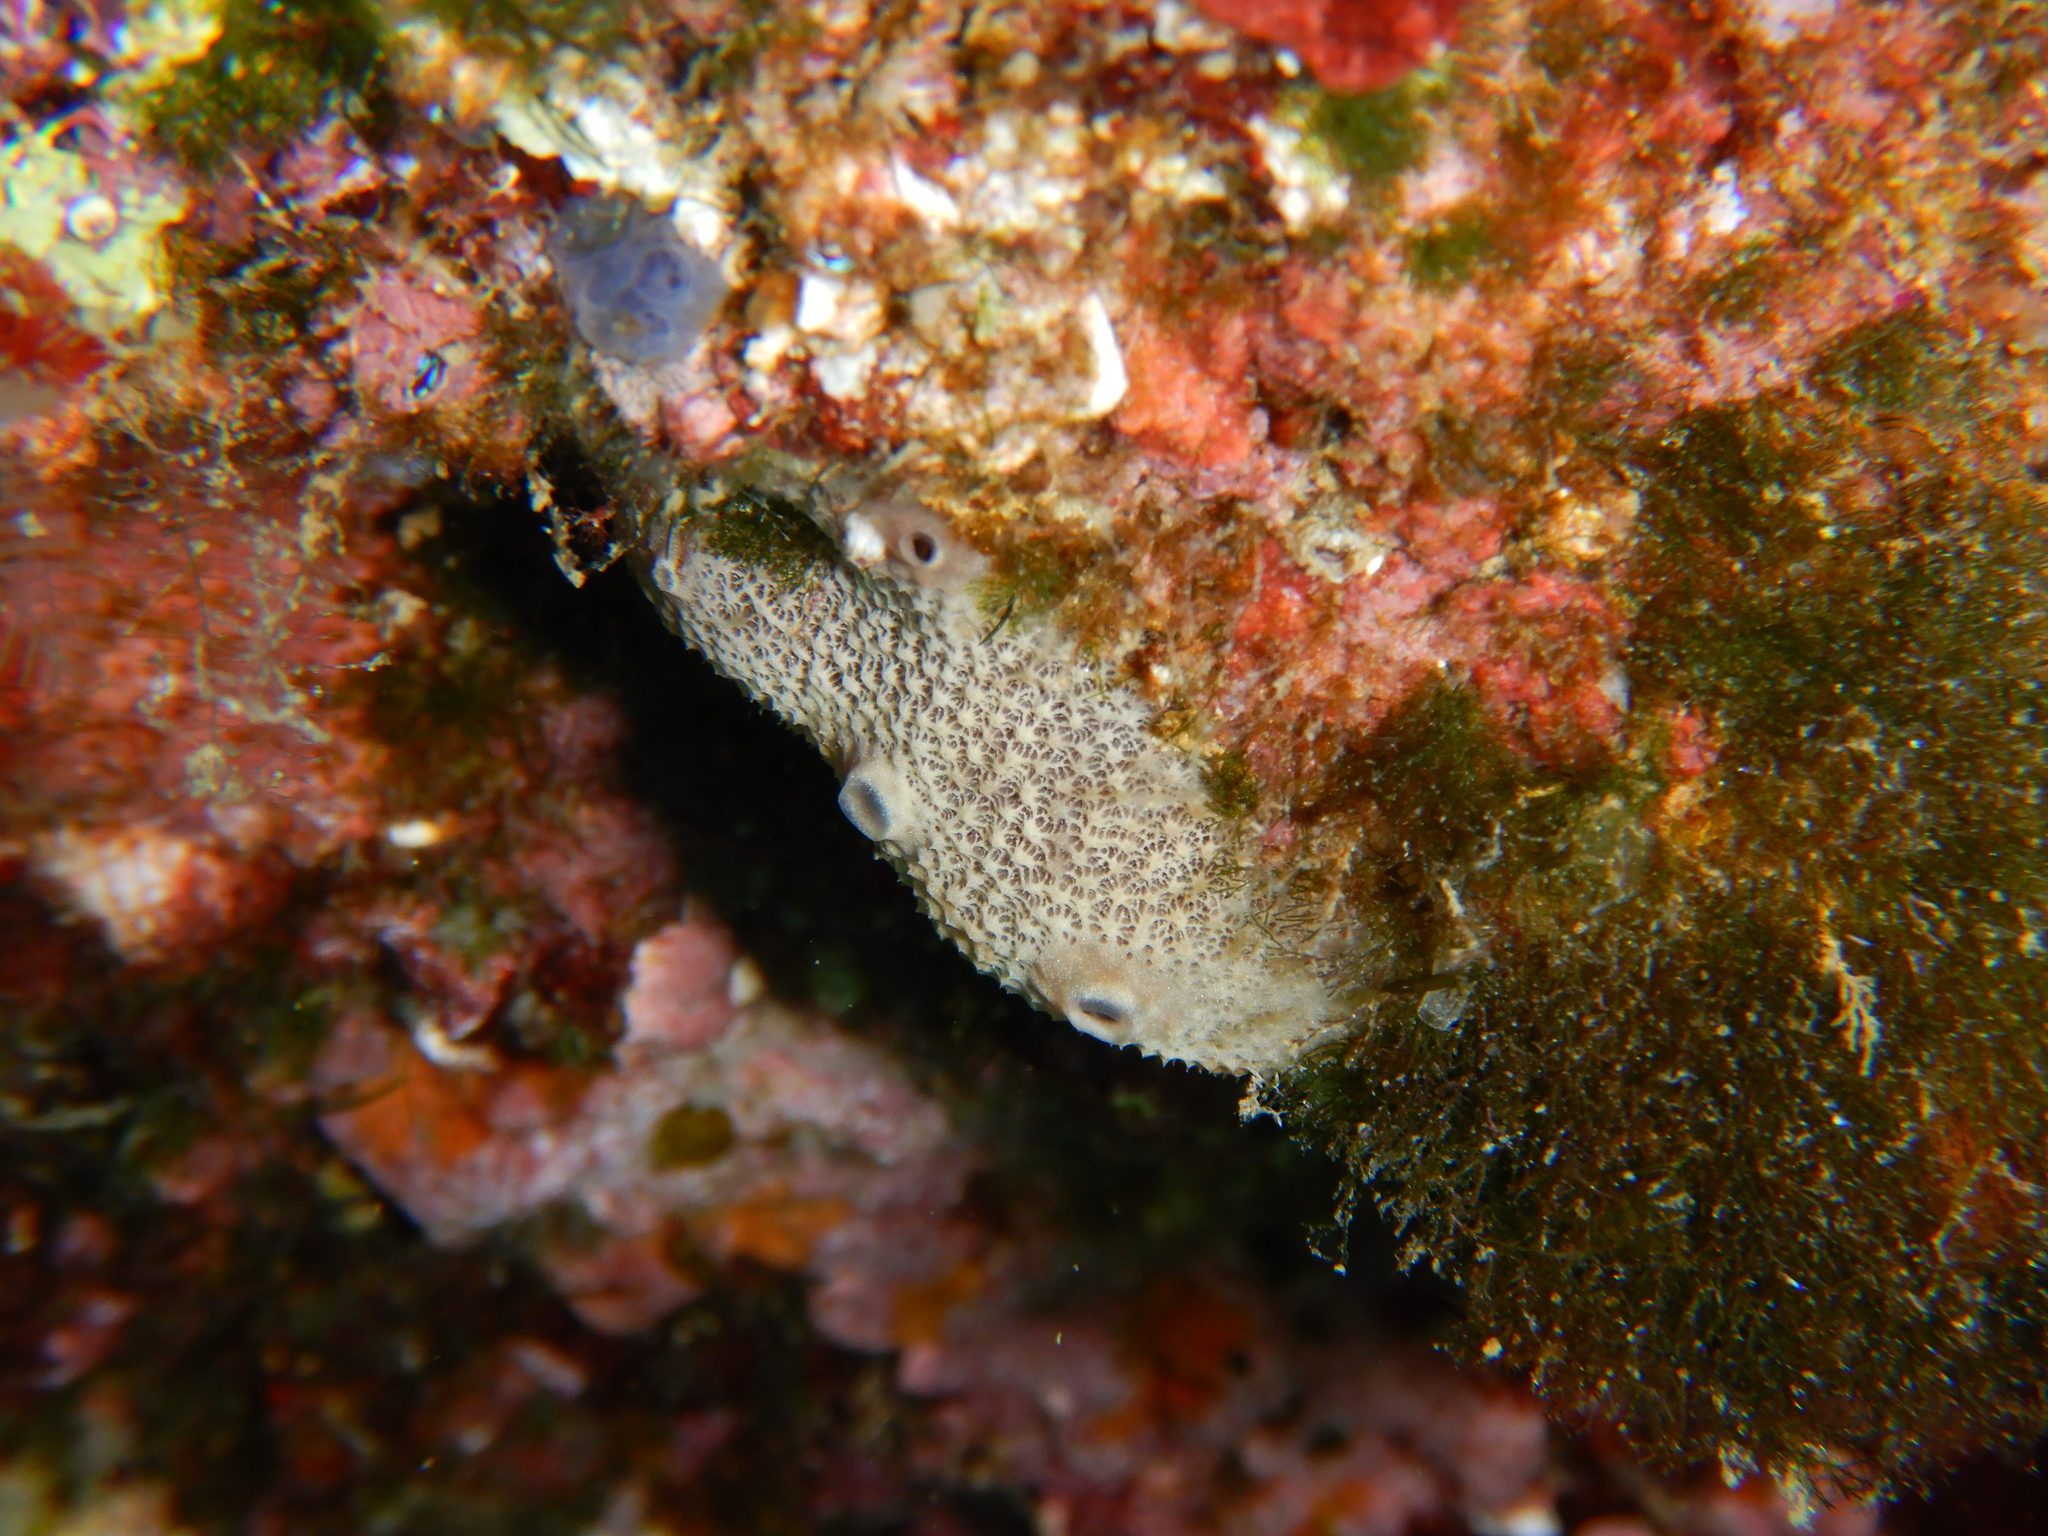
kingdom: Animalia
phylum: Porifera
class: Demospongiae
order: Dictyoceratida
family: Irciniidae
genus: Ircinia
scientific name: Ircinia variabilis
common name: Variable loggerhead sponge
